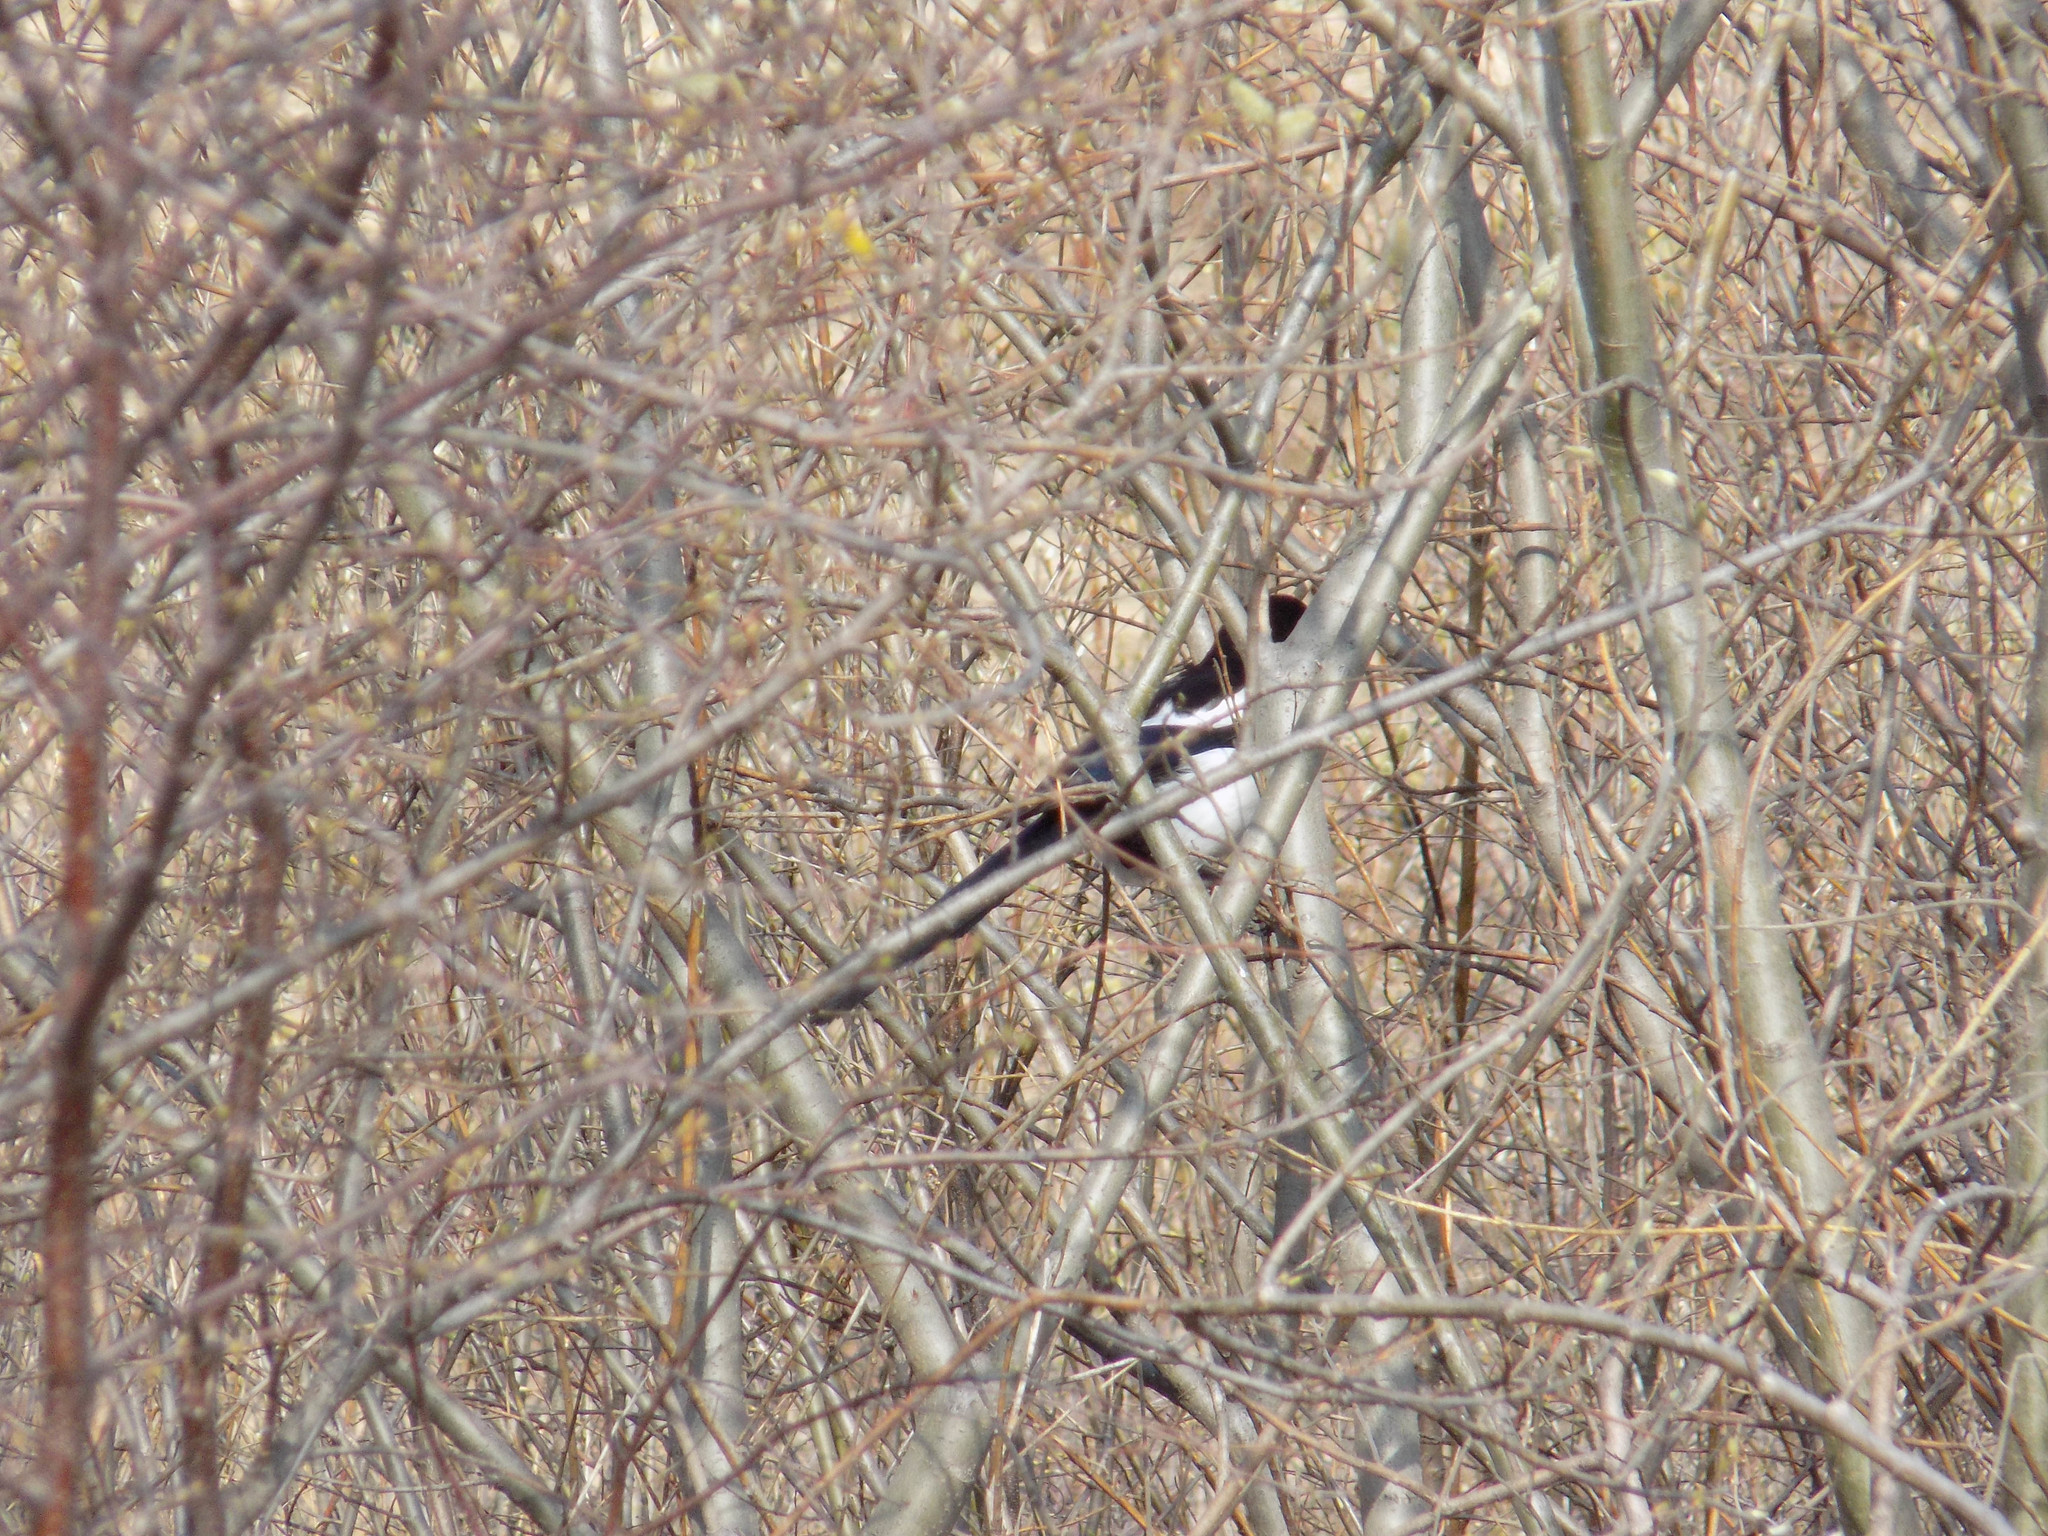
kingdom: Animalia
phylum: Chordata
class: Aves
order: Passeriformes
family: Corvidae
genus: Pica
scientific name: Pica pica
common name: Eurasian magpie
